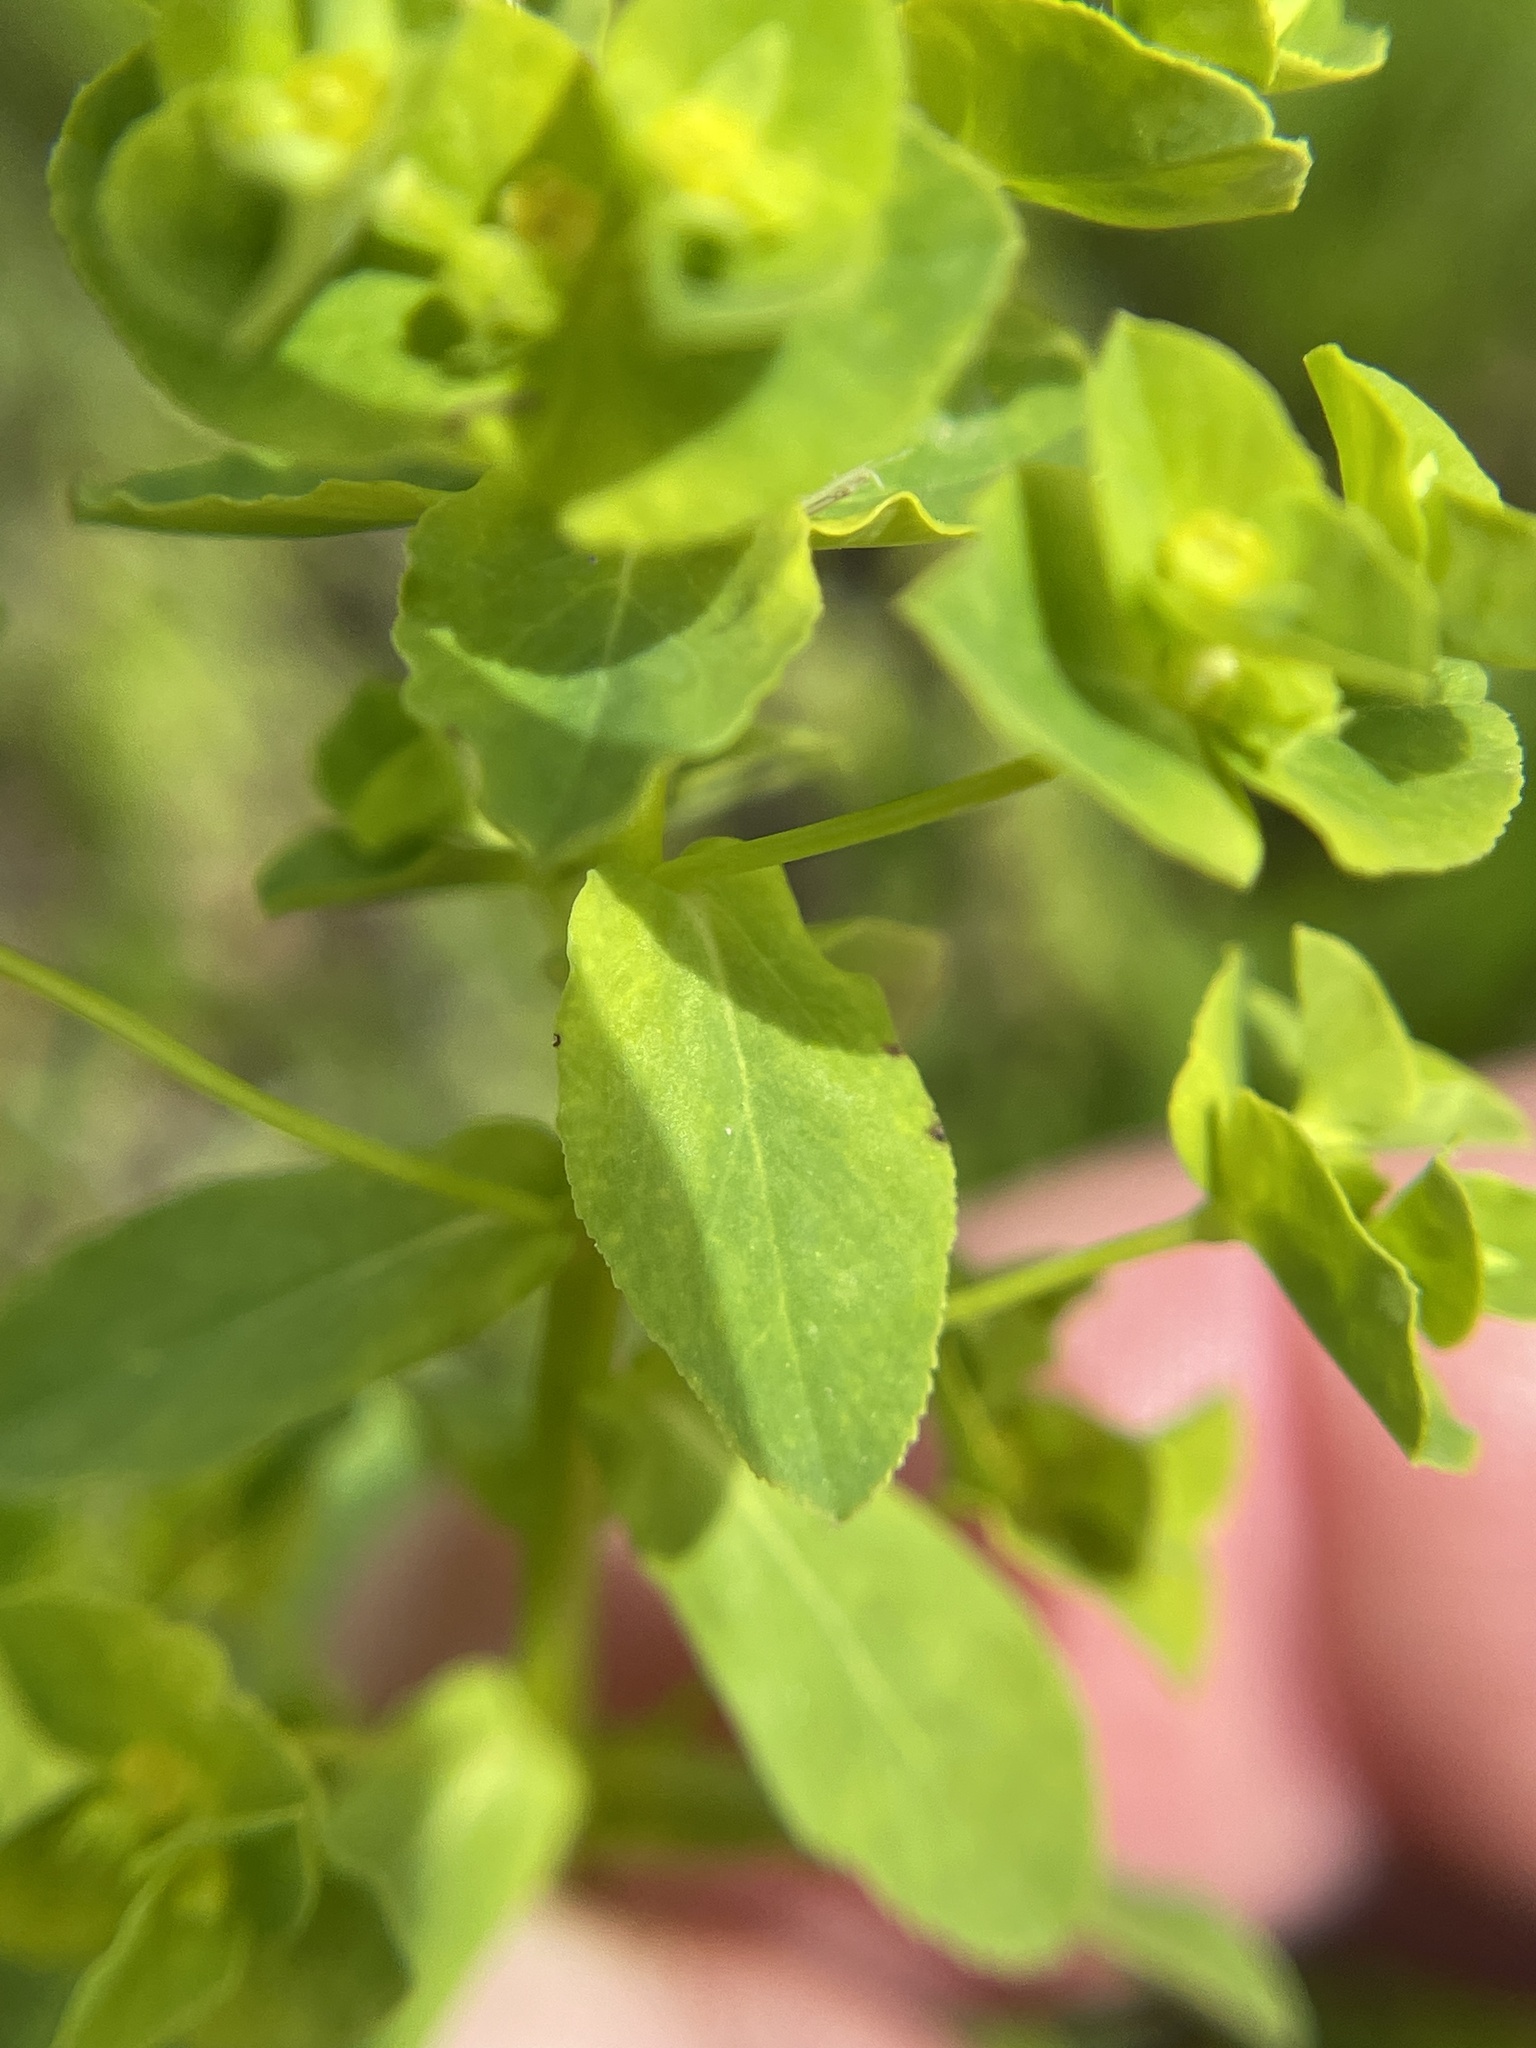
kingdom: Plantae
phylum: Tracheophyta
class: Magnoliopsida
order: Malpighiales
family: Euphorbiaceae
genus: Euphorbia
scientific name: Euphorbia spathulata
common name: Blunt spurge
